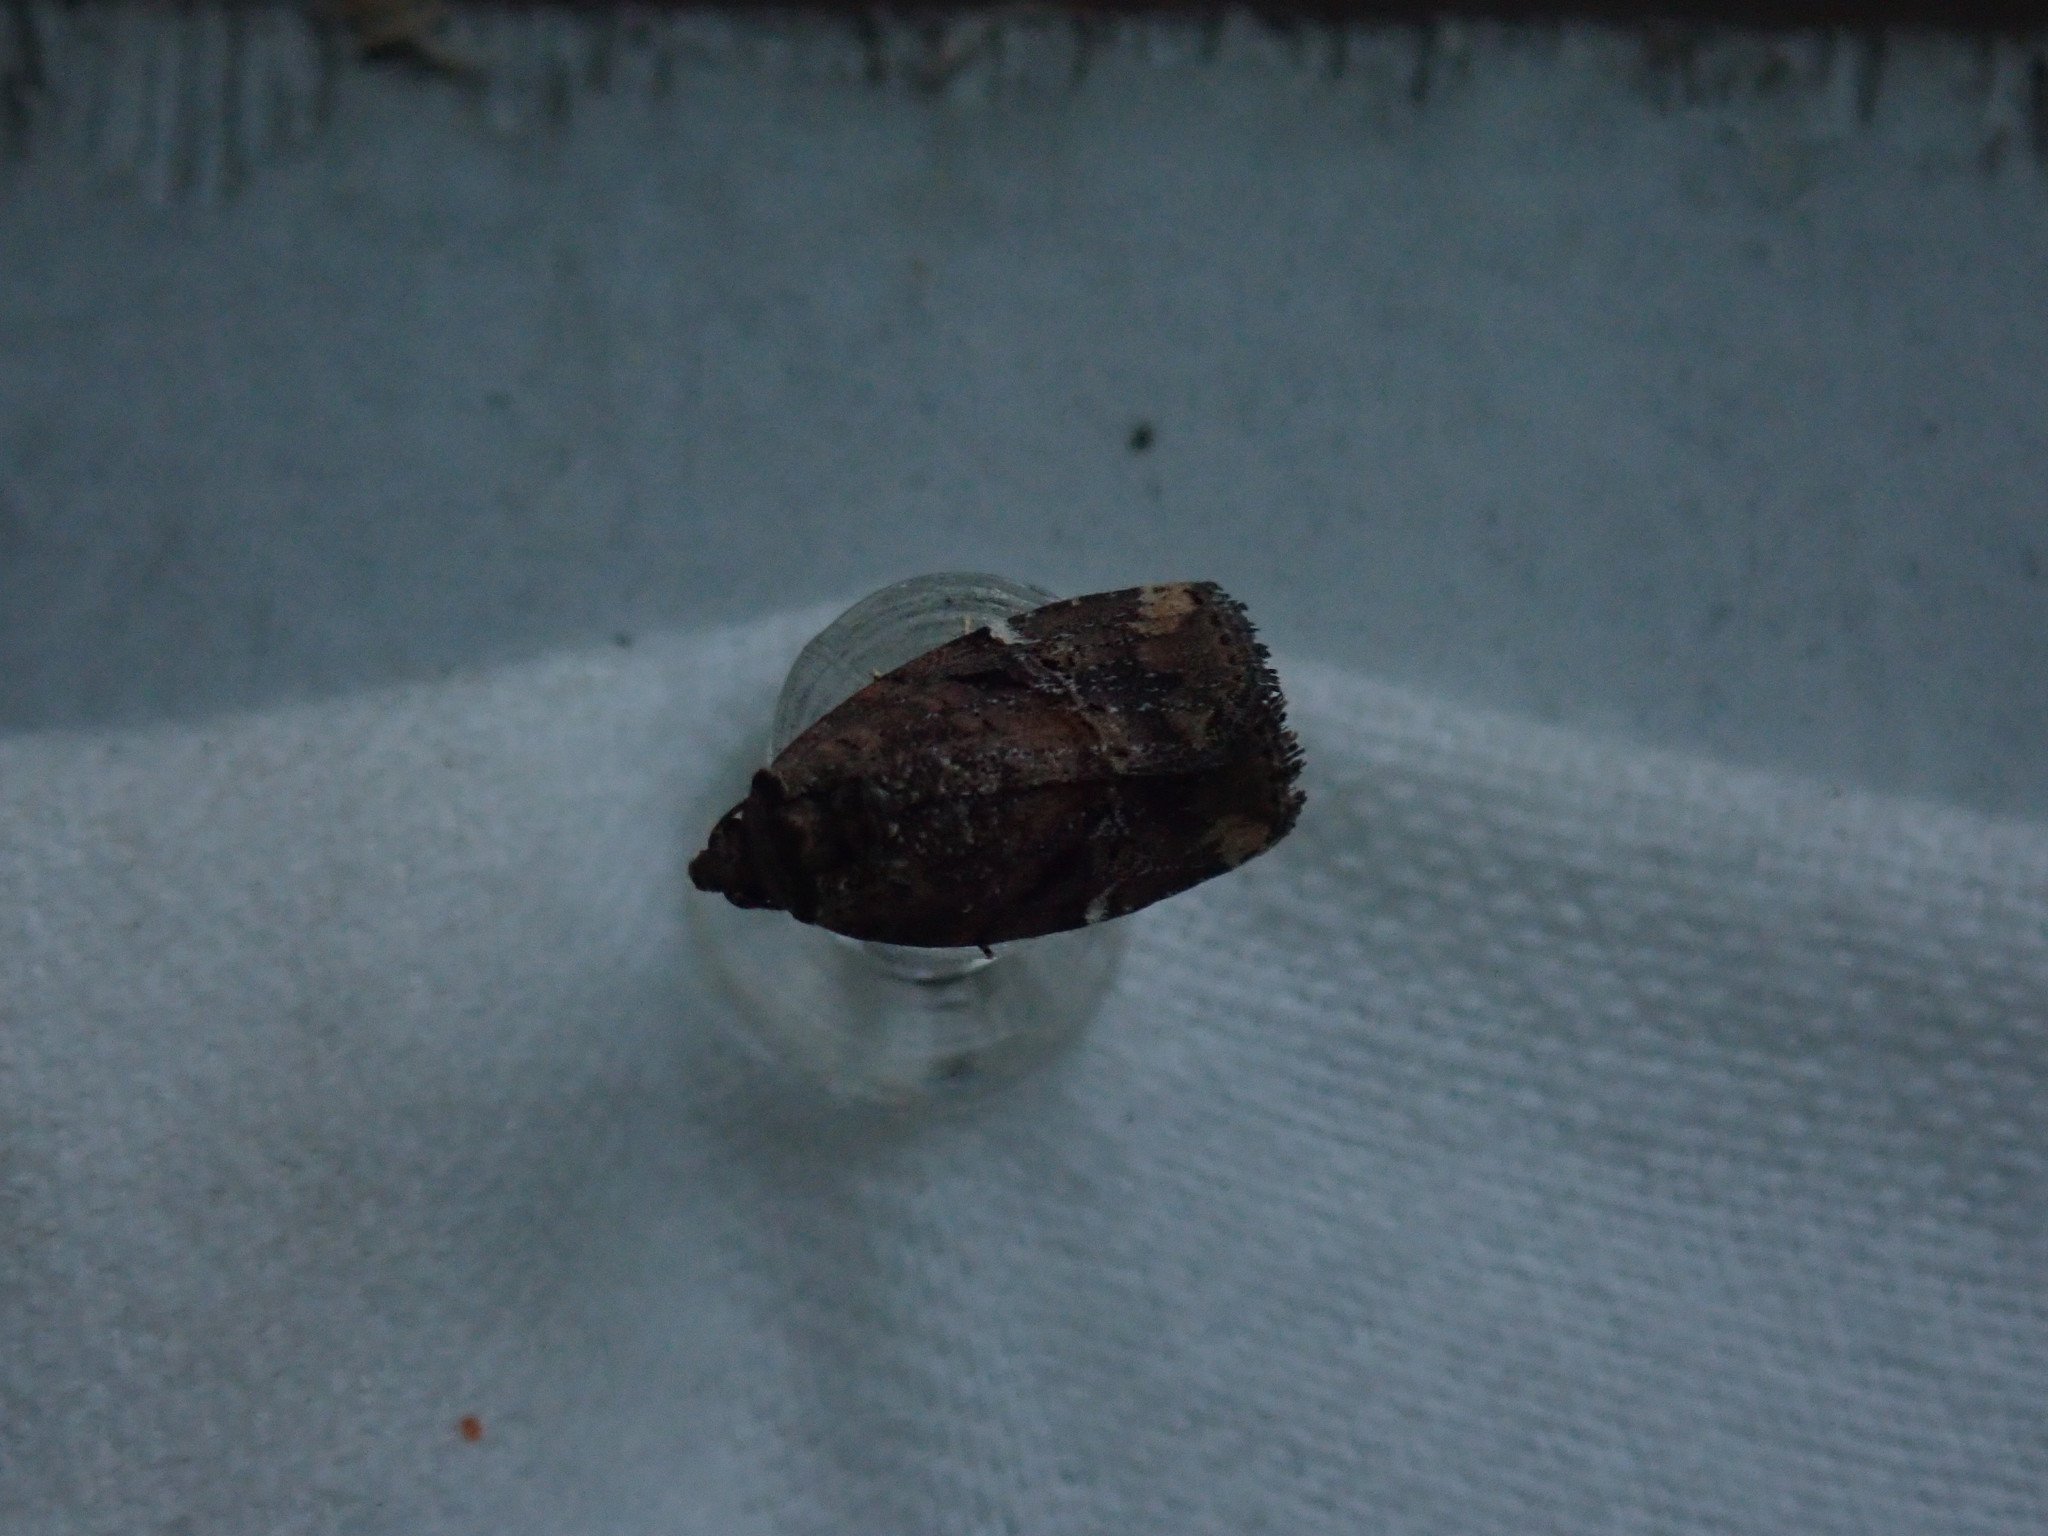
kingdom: Animalia
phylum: Arthropoda
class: Insecta
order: Lepidoptera
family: Noctuidae
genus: Elaphria
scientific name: Elaphria versicolor
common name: Fir harlequin
